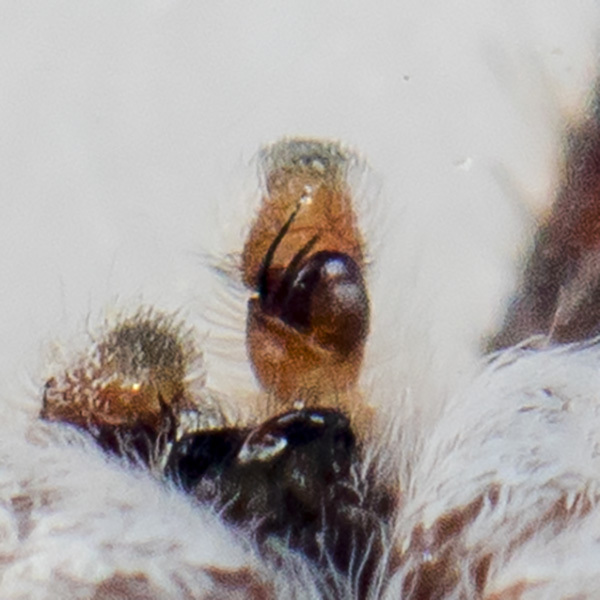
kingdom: Animalia
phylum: Arthropoda
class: Arachnida
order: Araneae
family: Salticidae
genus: Pseudomogrus
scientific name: Pseudomogrus guseinovi
